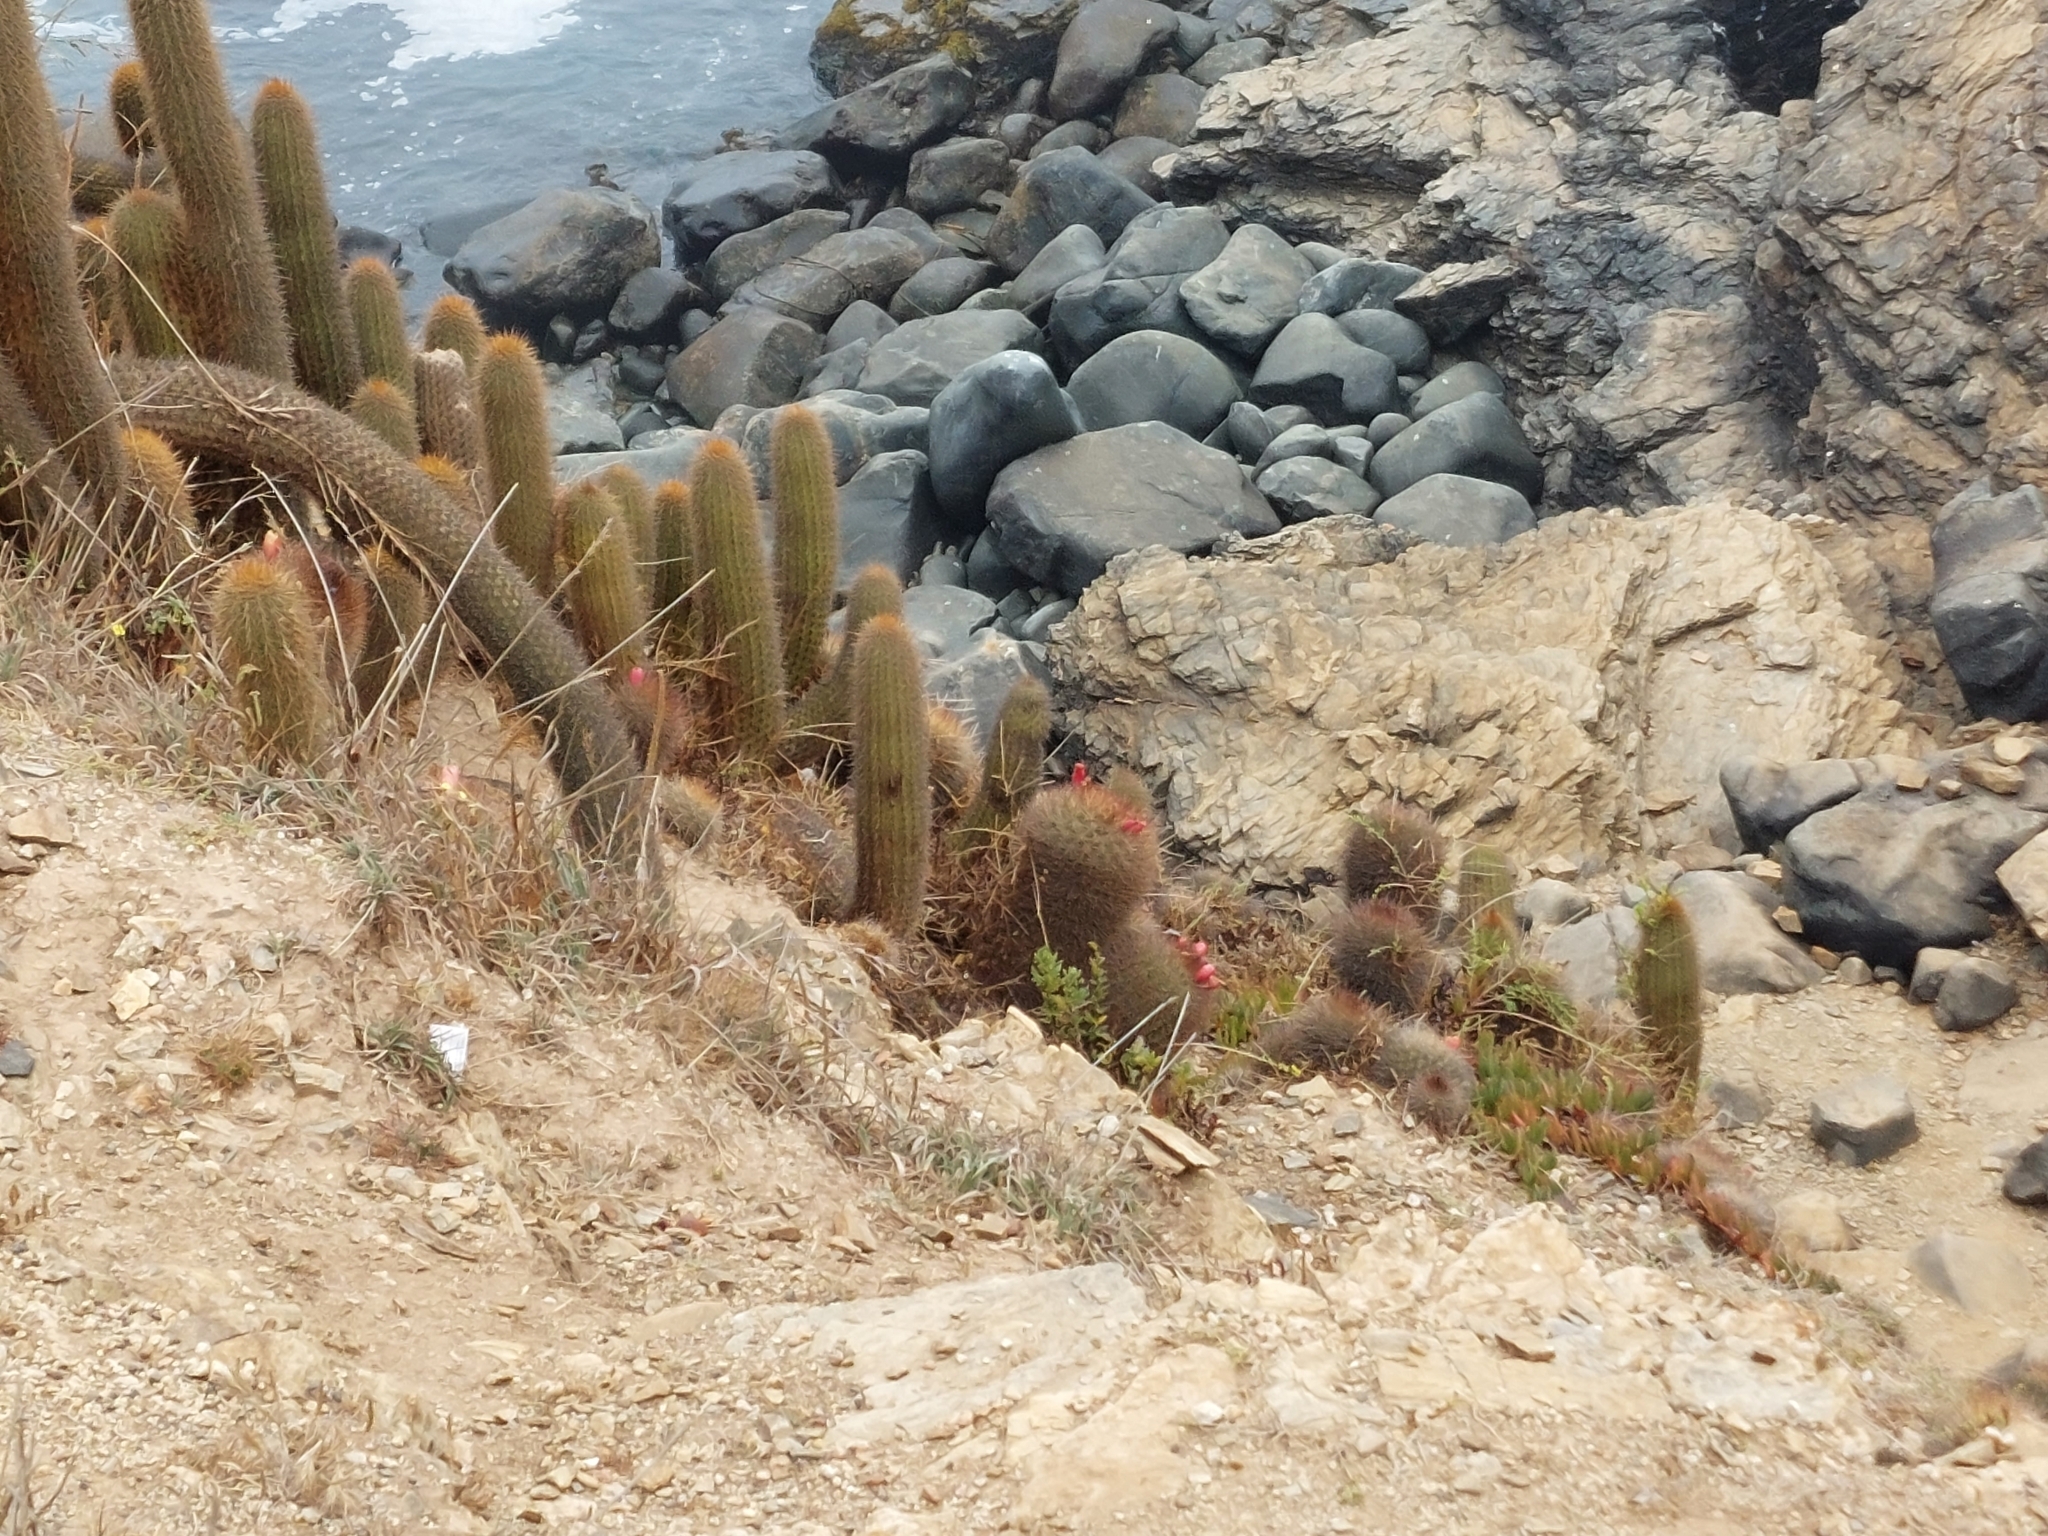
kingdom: Plantae
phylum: Tracheophyta
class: Magnoliopsida
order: Caryophyllales
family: Cactaceae
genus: Eriosyce
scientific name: Eriosyce subgibbosa
